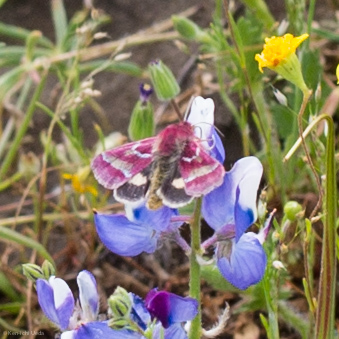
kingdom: Animalia
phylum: Arthropoda
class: Insecta
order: Lepidoptera
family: Noctuidae
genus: Schinia
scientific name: Schinia pulchripennis
